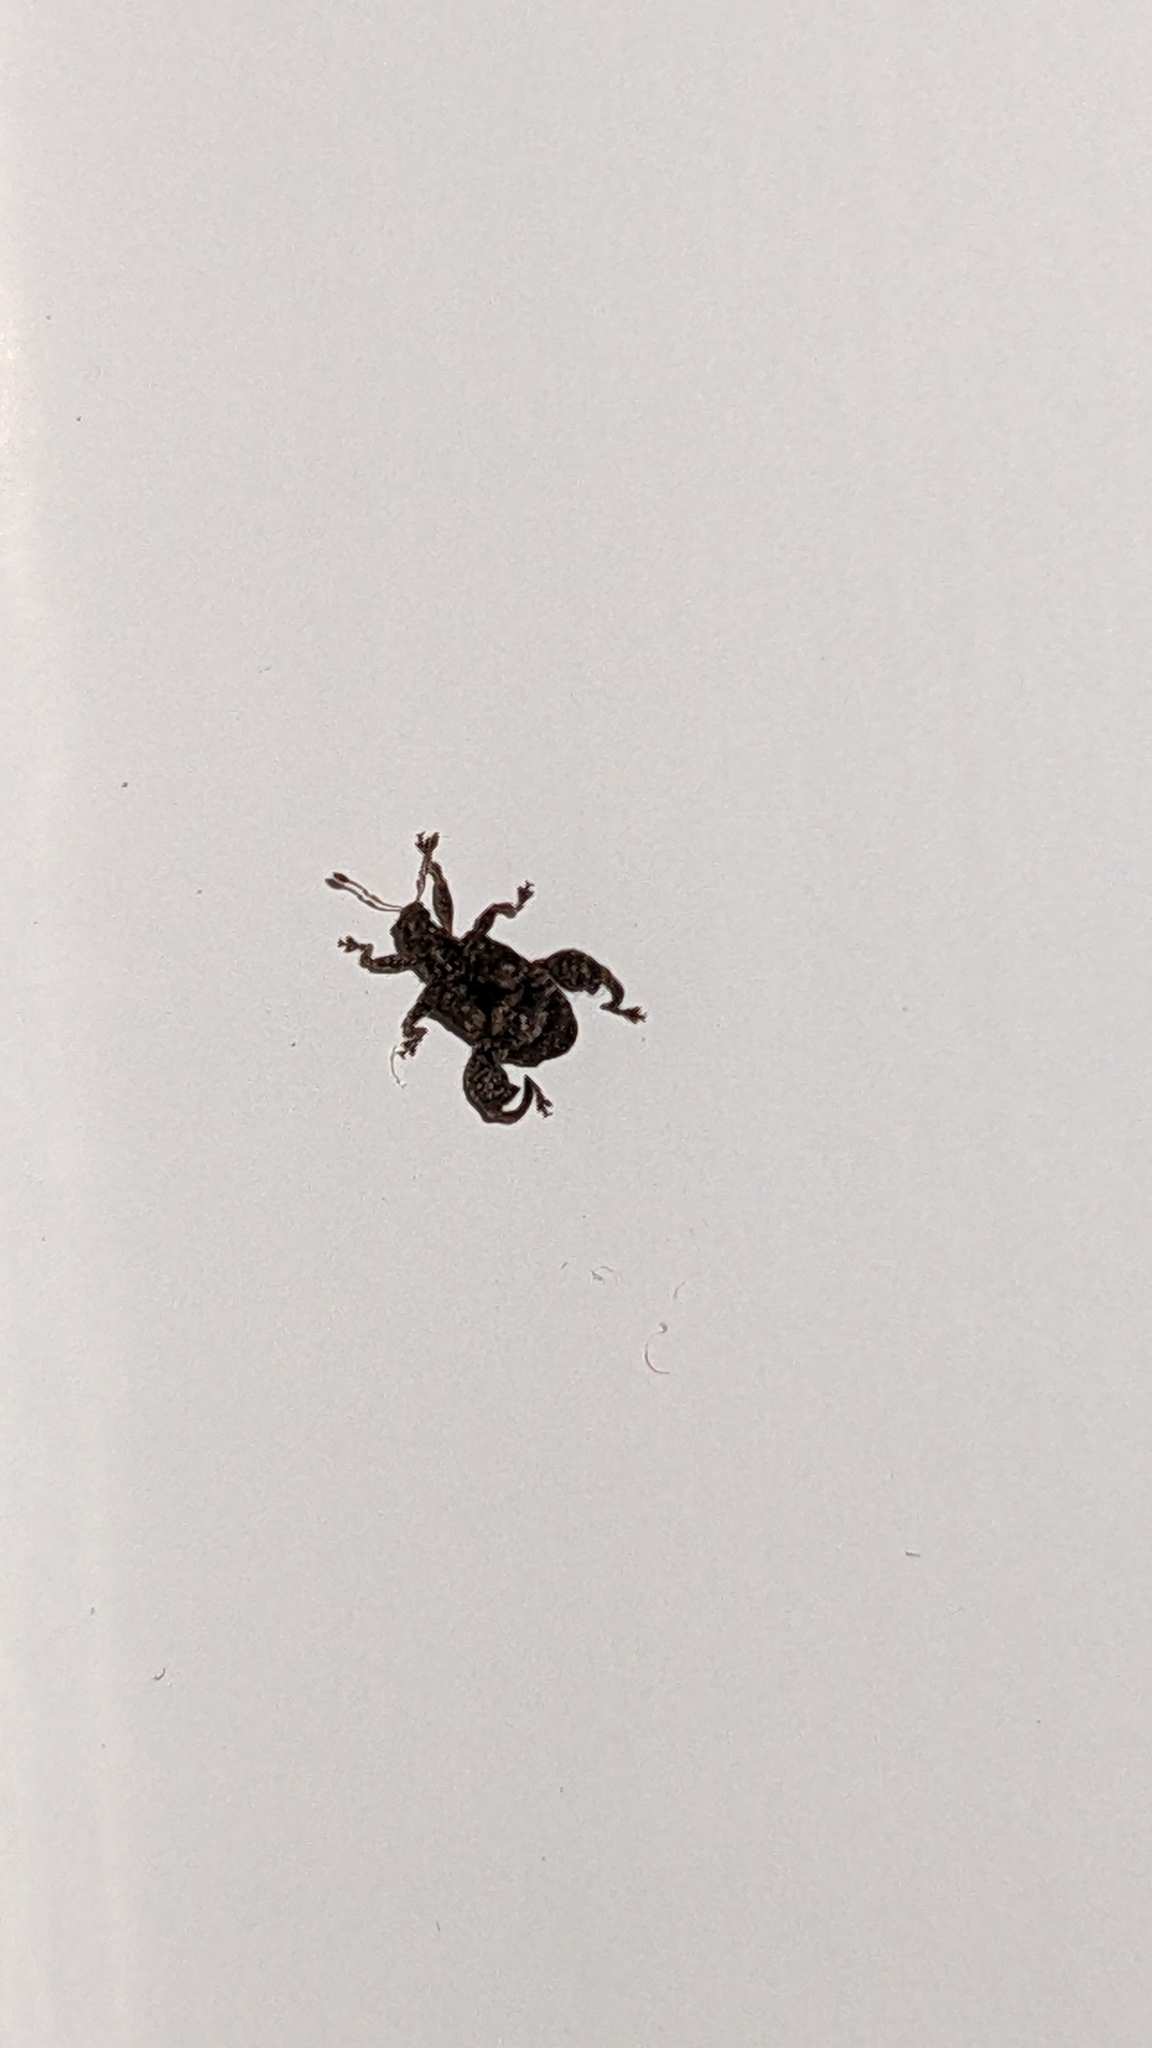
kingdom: Animalia
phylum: Arthropoda
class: Insecta
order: Coleoptera
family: Curculionidae
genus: Pactola
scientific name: Pactola variabilis
